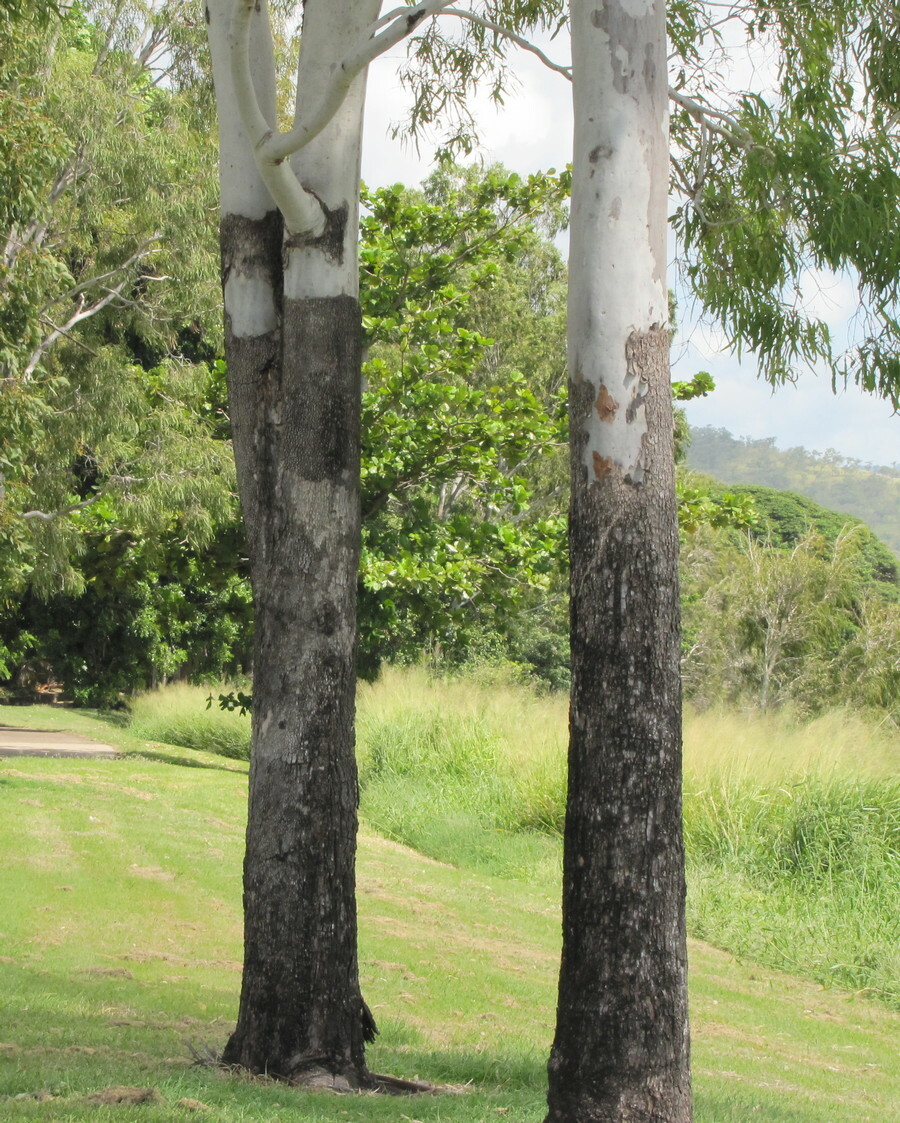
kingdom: Plantae
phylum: Tracheophyta
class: Magnoliopsida
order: Myrtales
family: Myrtaceae
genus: Corymbia
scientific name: Corymbia tessellaris
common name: Carbeen
